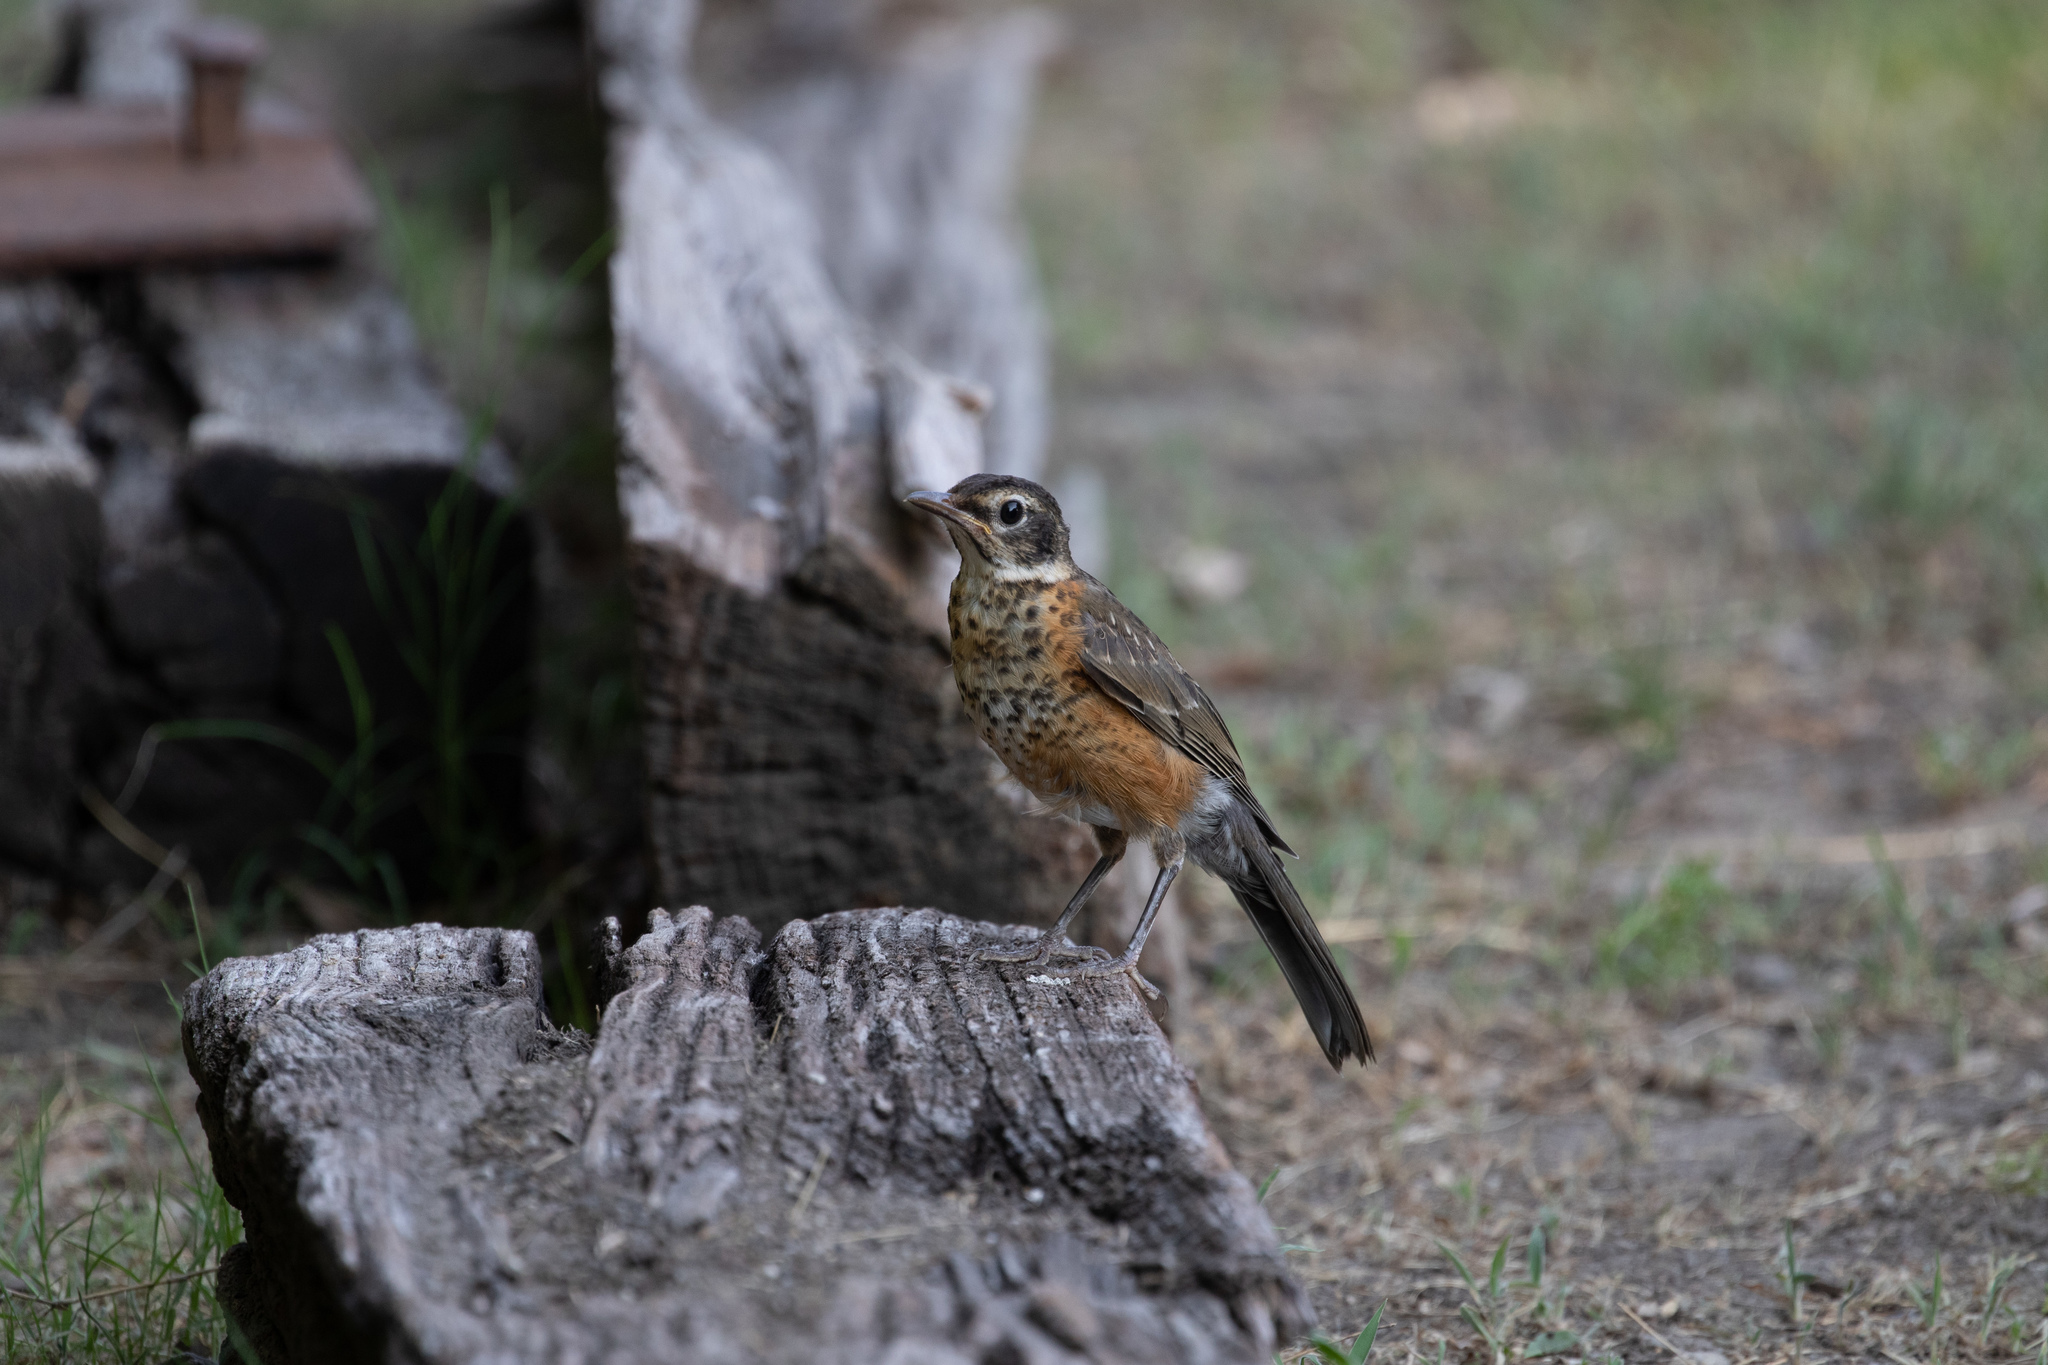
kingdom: Animalia
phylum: Chordata
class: Aves
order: Passeriformes
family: Turdidae
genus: Turdus
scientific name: Turdus migratorius
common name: American robin
